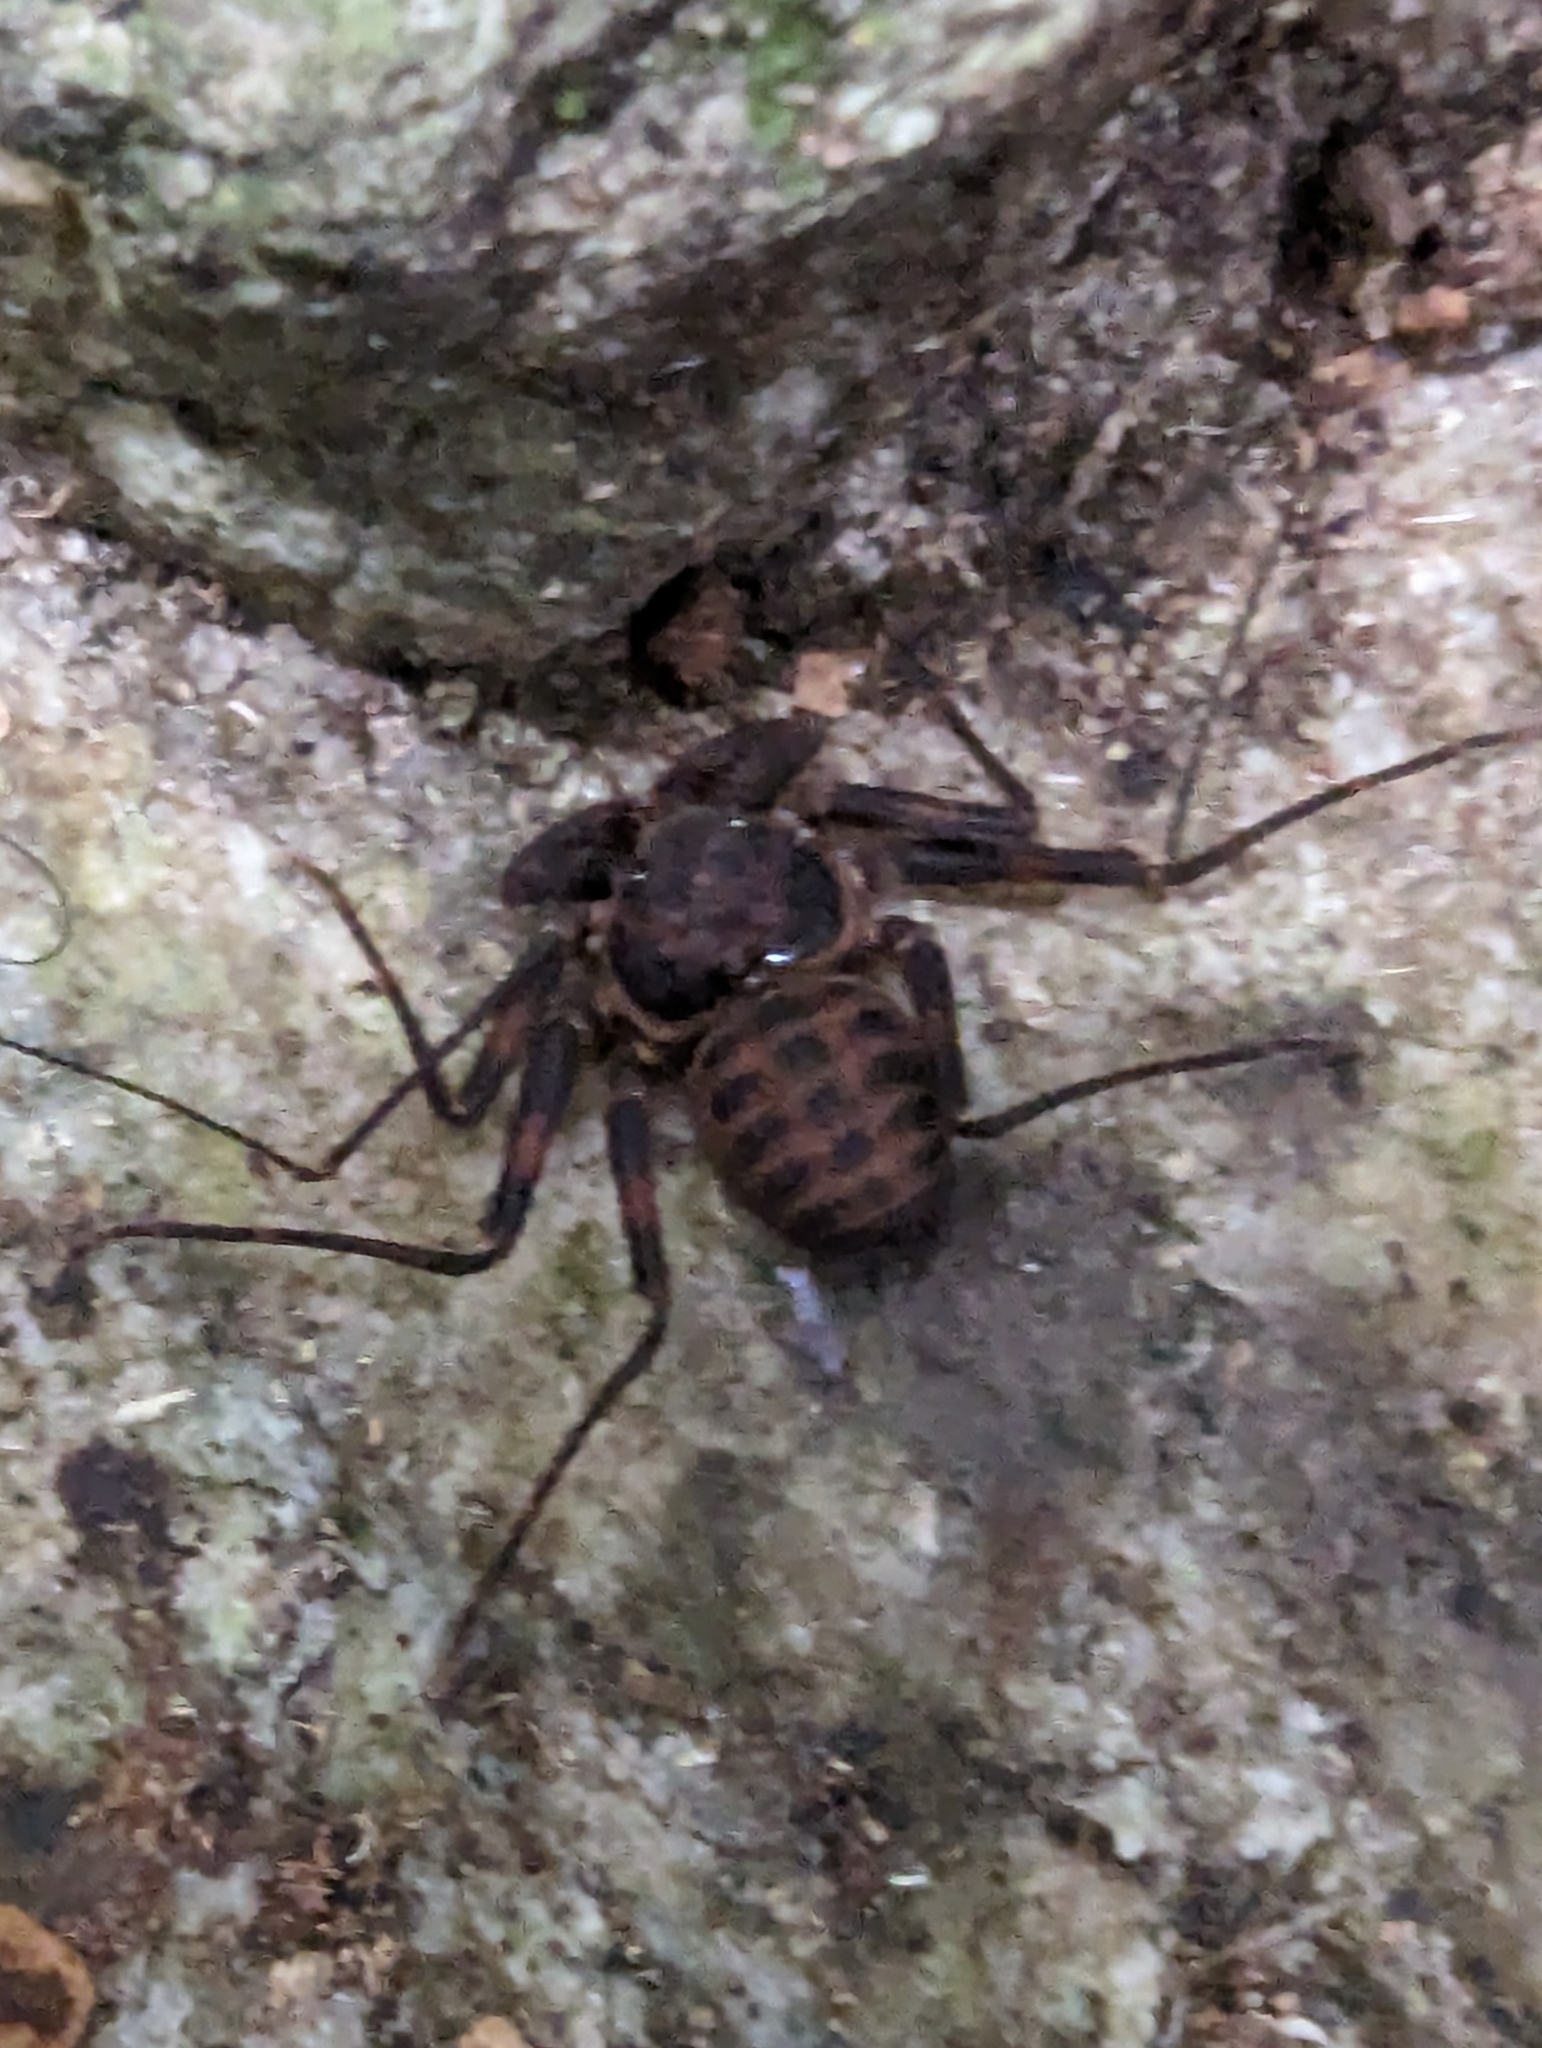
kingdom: Animalia
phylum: Arthropoda
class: Arachnida
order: Amblypygi
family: Charinidae
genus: Charinus
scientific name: Charinus pescotti
